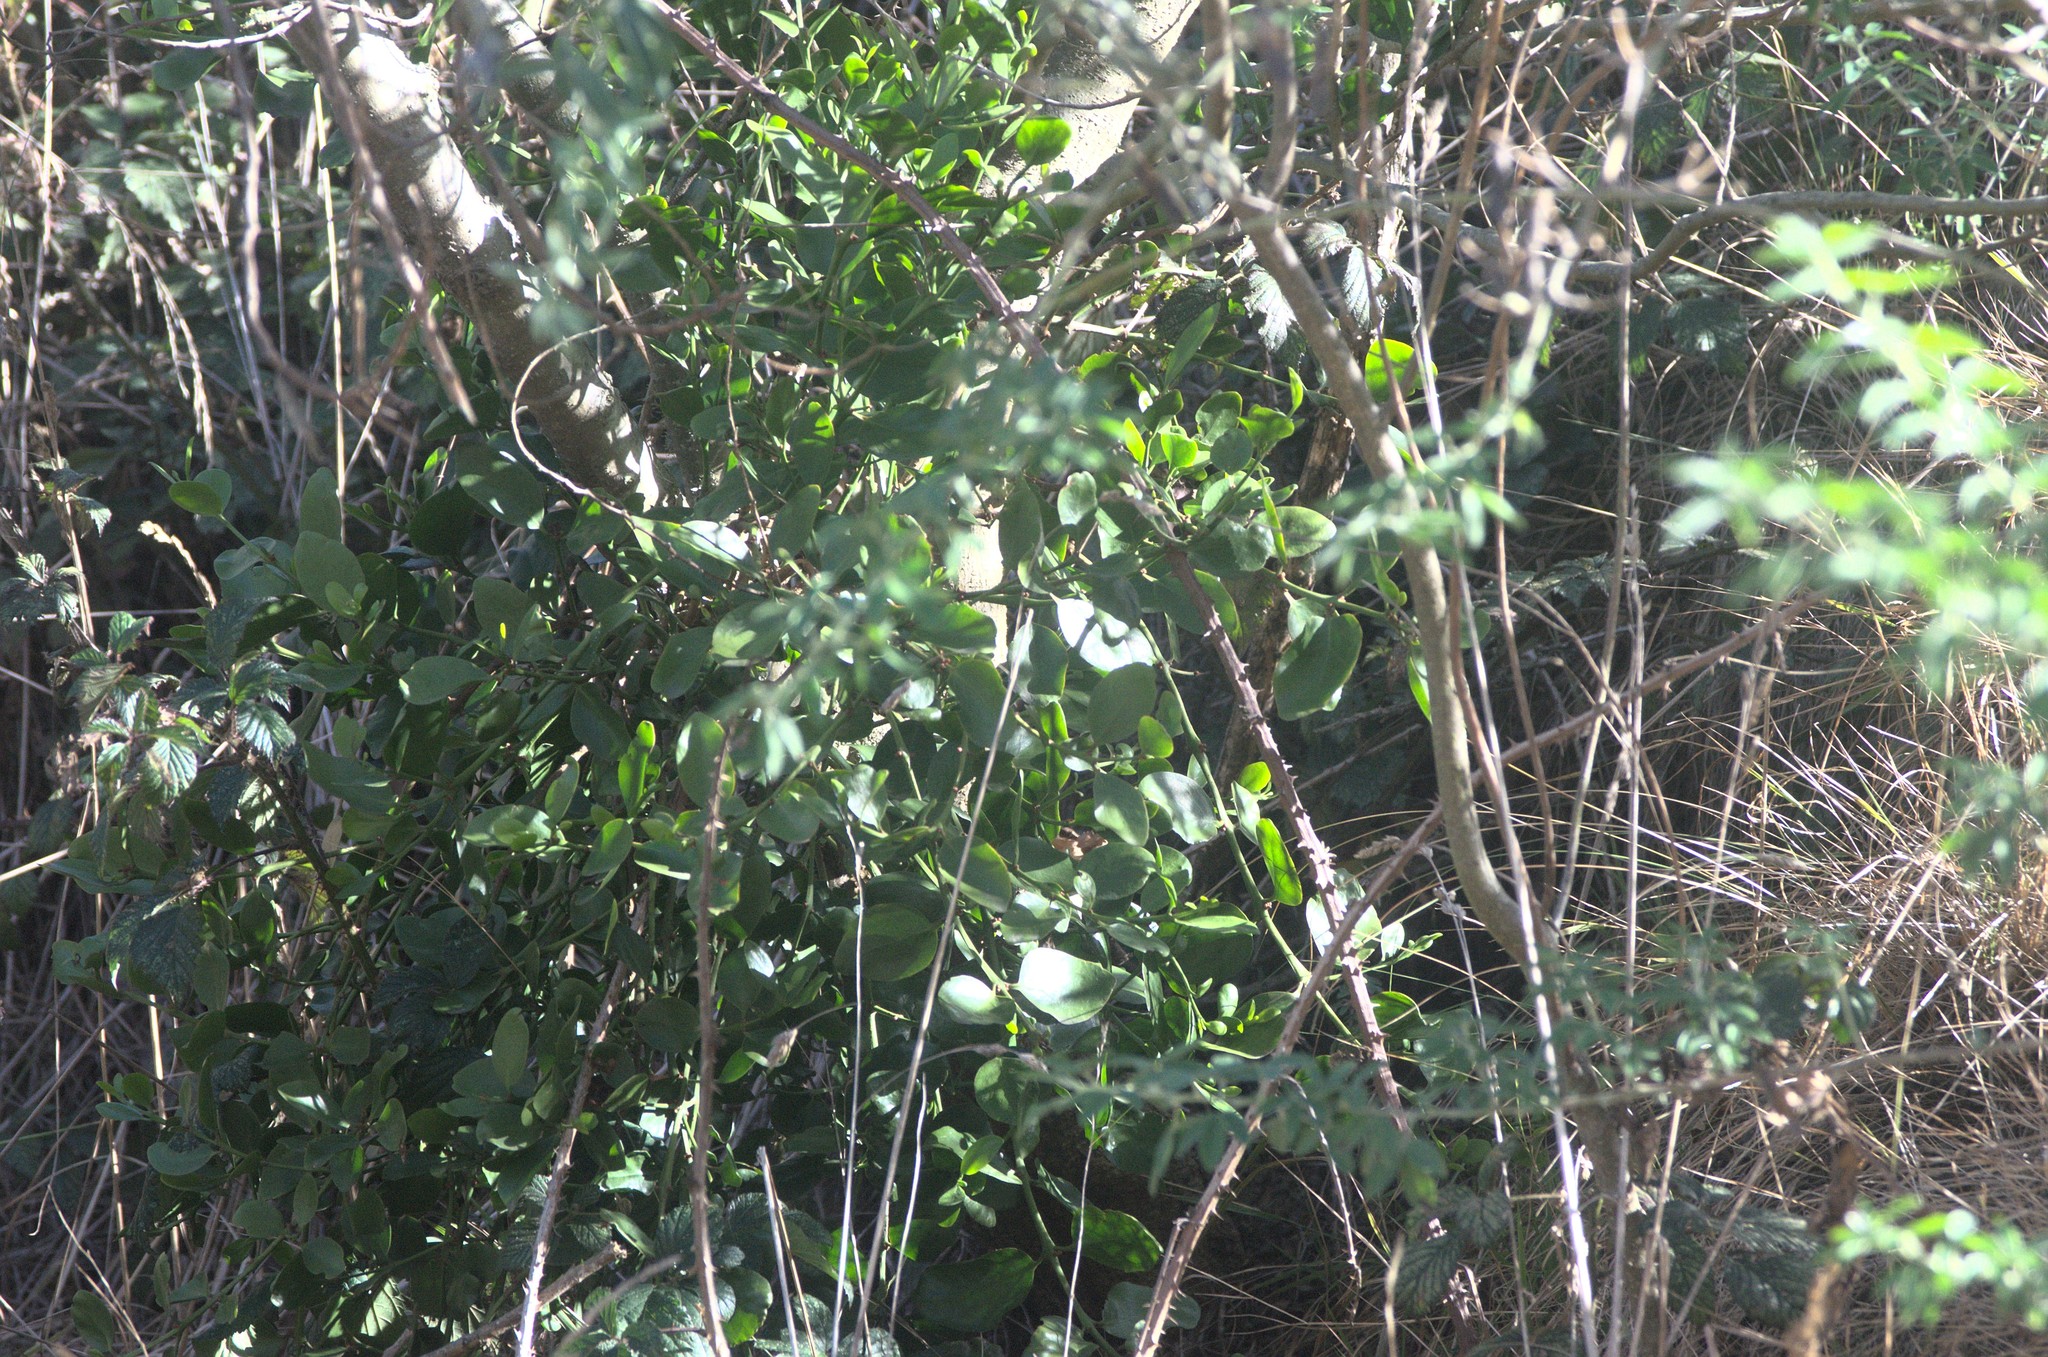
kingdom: Plantae
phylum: Tracheophyta
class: Magnoliopsida
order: Santalales
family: Loranthaceae
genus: Ileostylus
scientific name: Ileostylus micranthus
